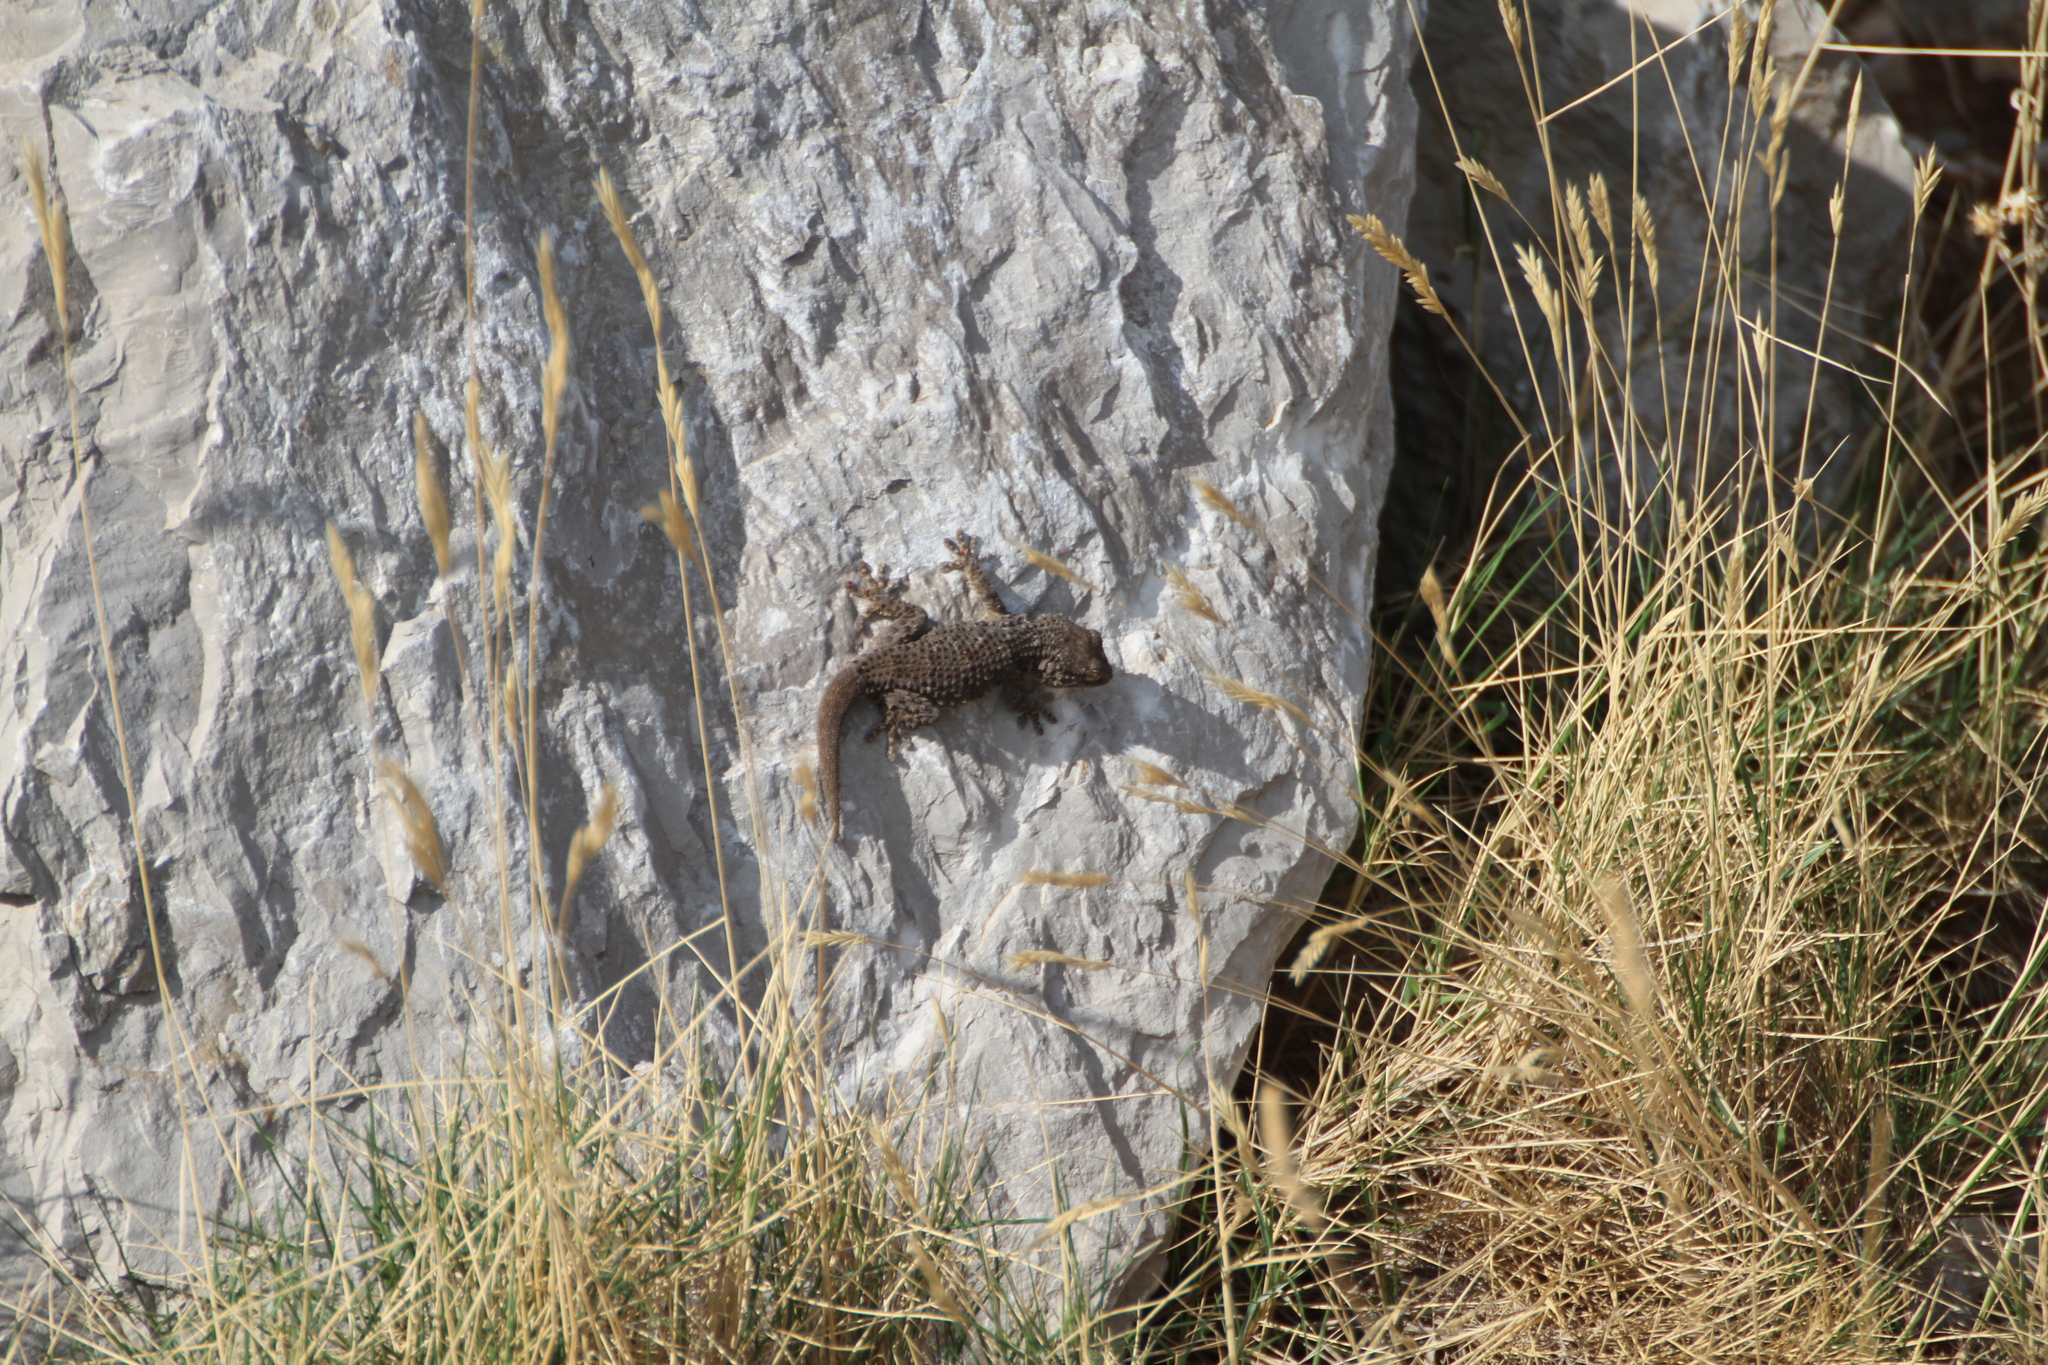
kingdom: Animalia
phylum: Chordata
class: Squamata
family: Phyllodactylidae
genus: Tarentola
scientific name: Tarentola mauritanica
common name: Moorish gecko
